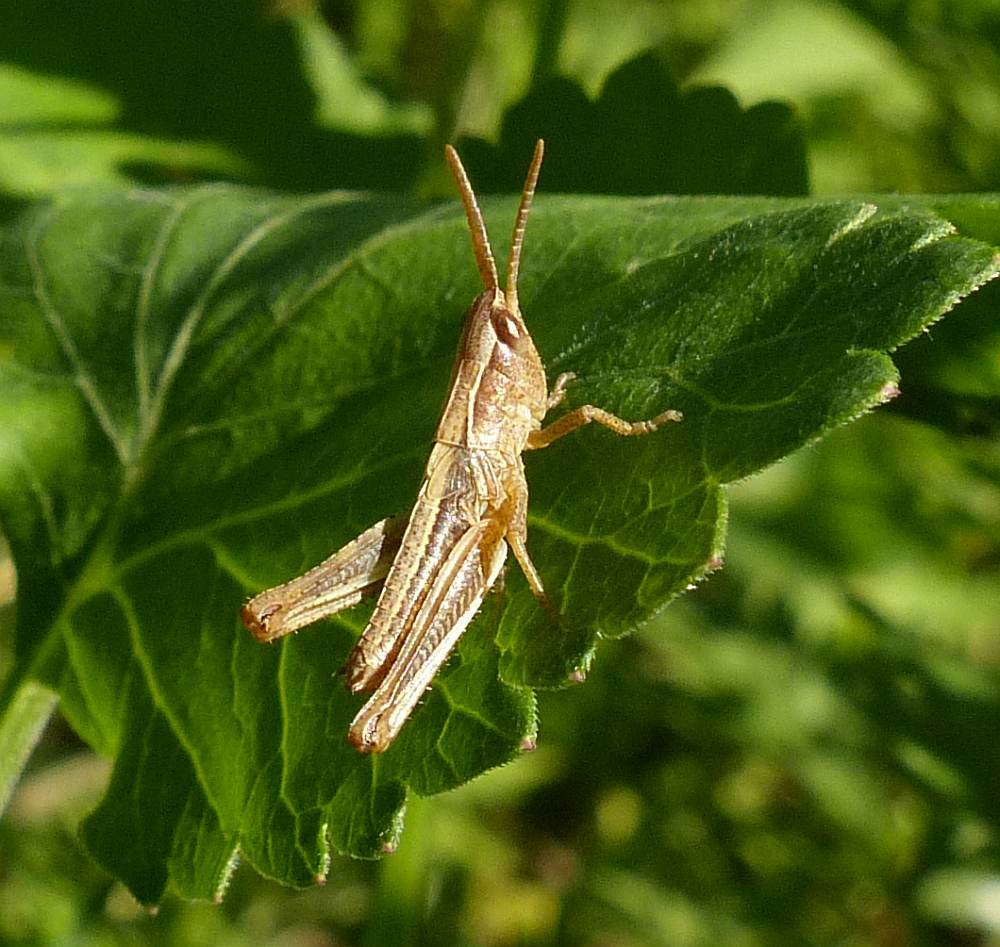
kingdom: Animalia
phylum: Arthropoda
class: Insecta
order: Orthoptera
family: Acrididae
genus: Pseudochorthippus
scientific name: Pseudochorthippus curtipennis
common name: Marsh meadow grasshopper
